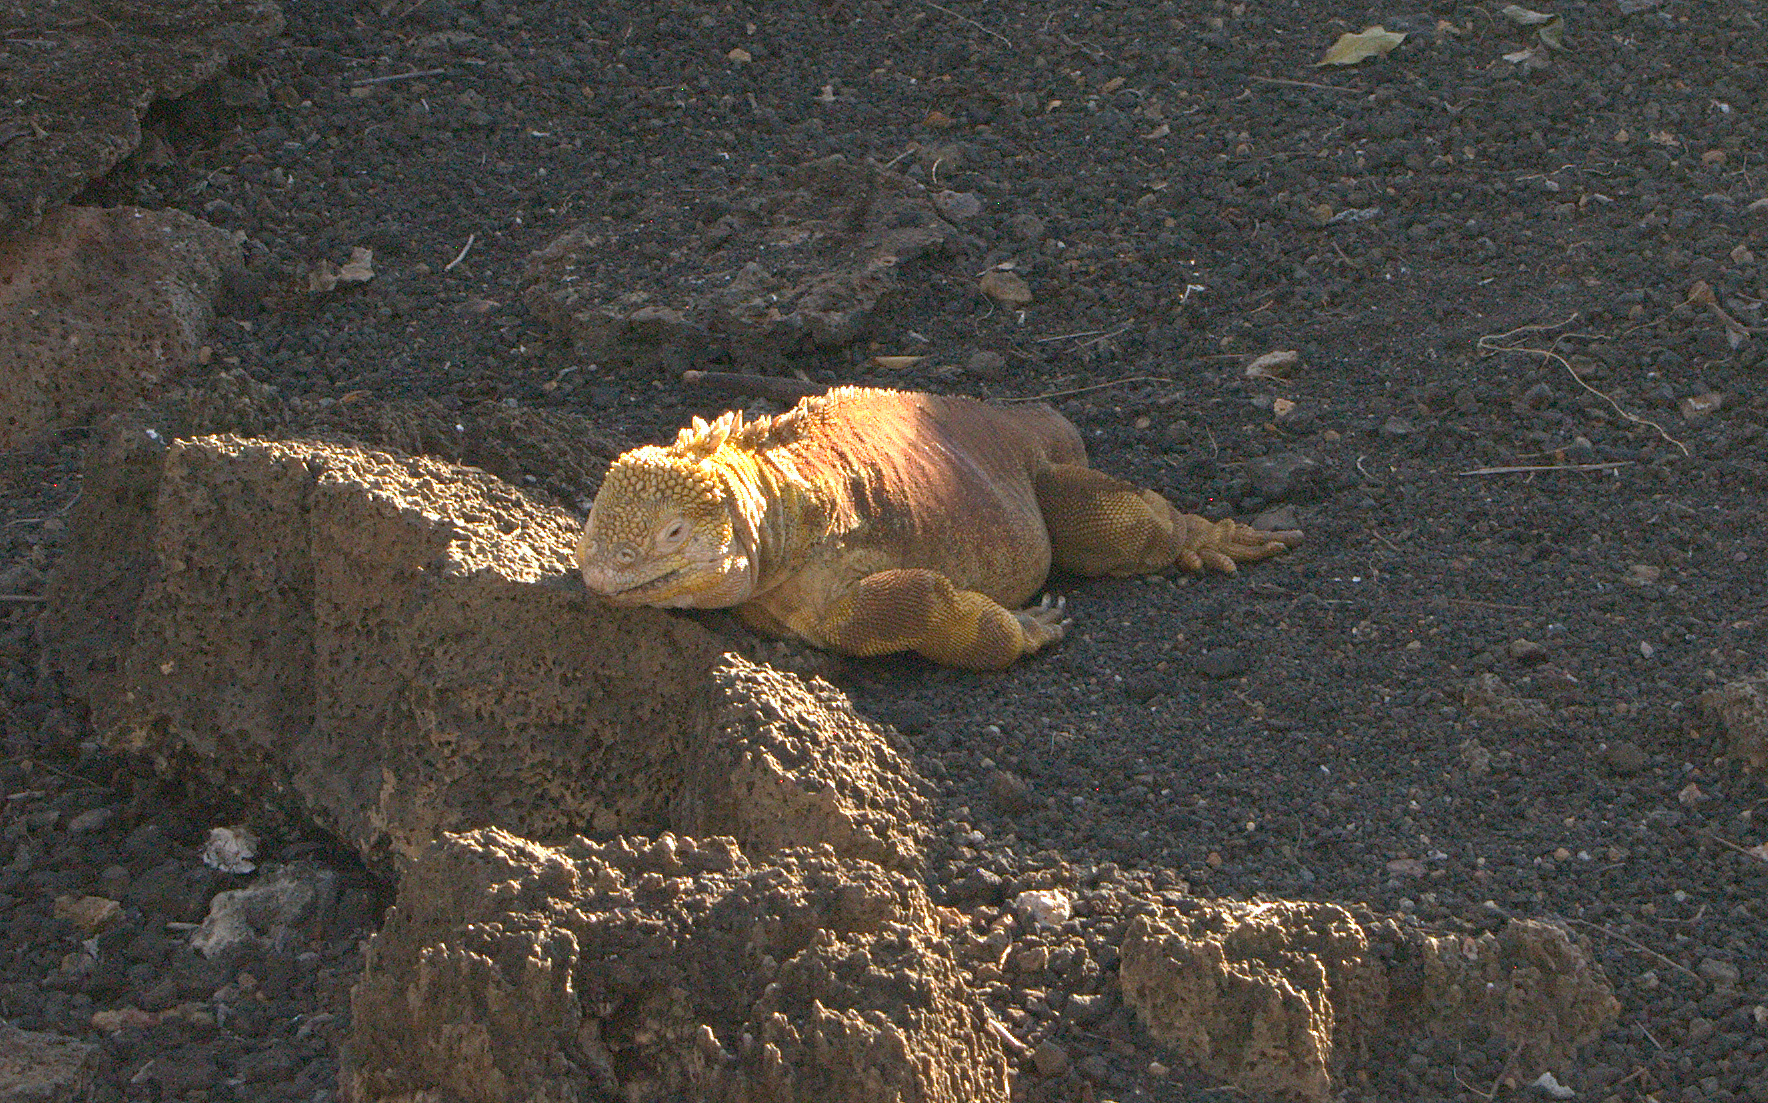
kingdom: Animalia
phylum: Chordata
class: Squamata
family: Iguanidae
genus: Conolophus
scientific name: Conolophus subcristatus
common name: Galapagos land iguana
